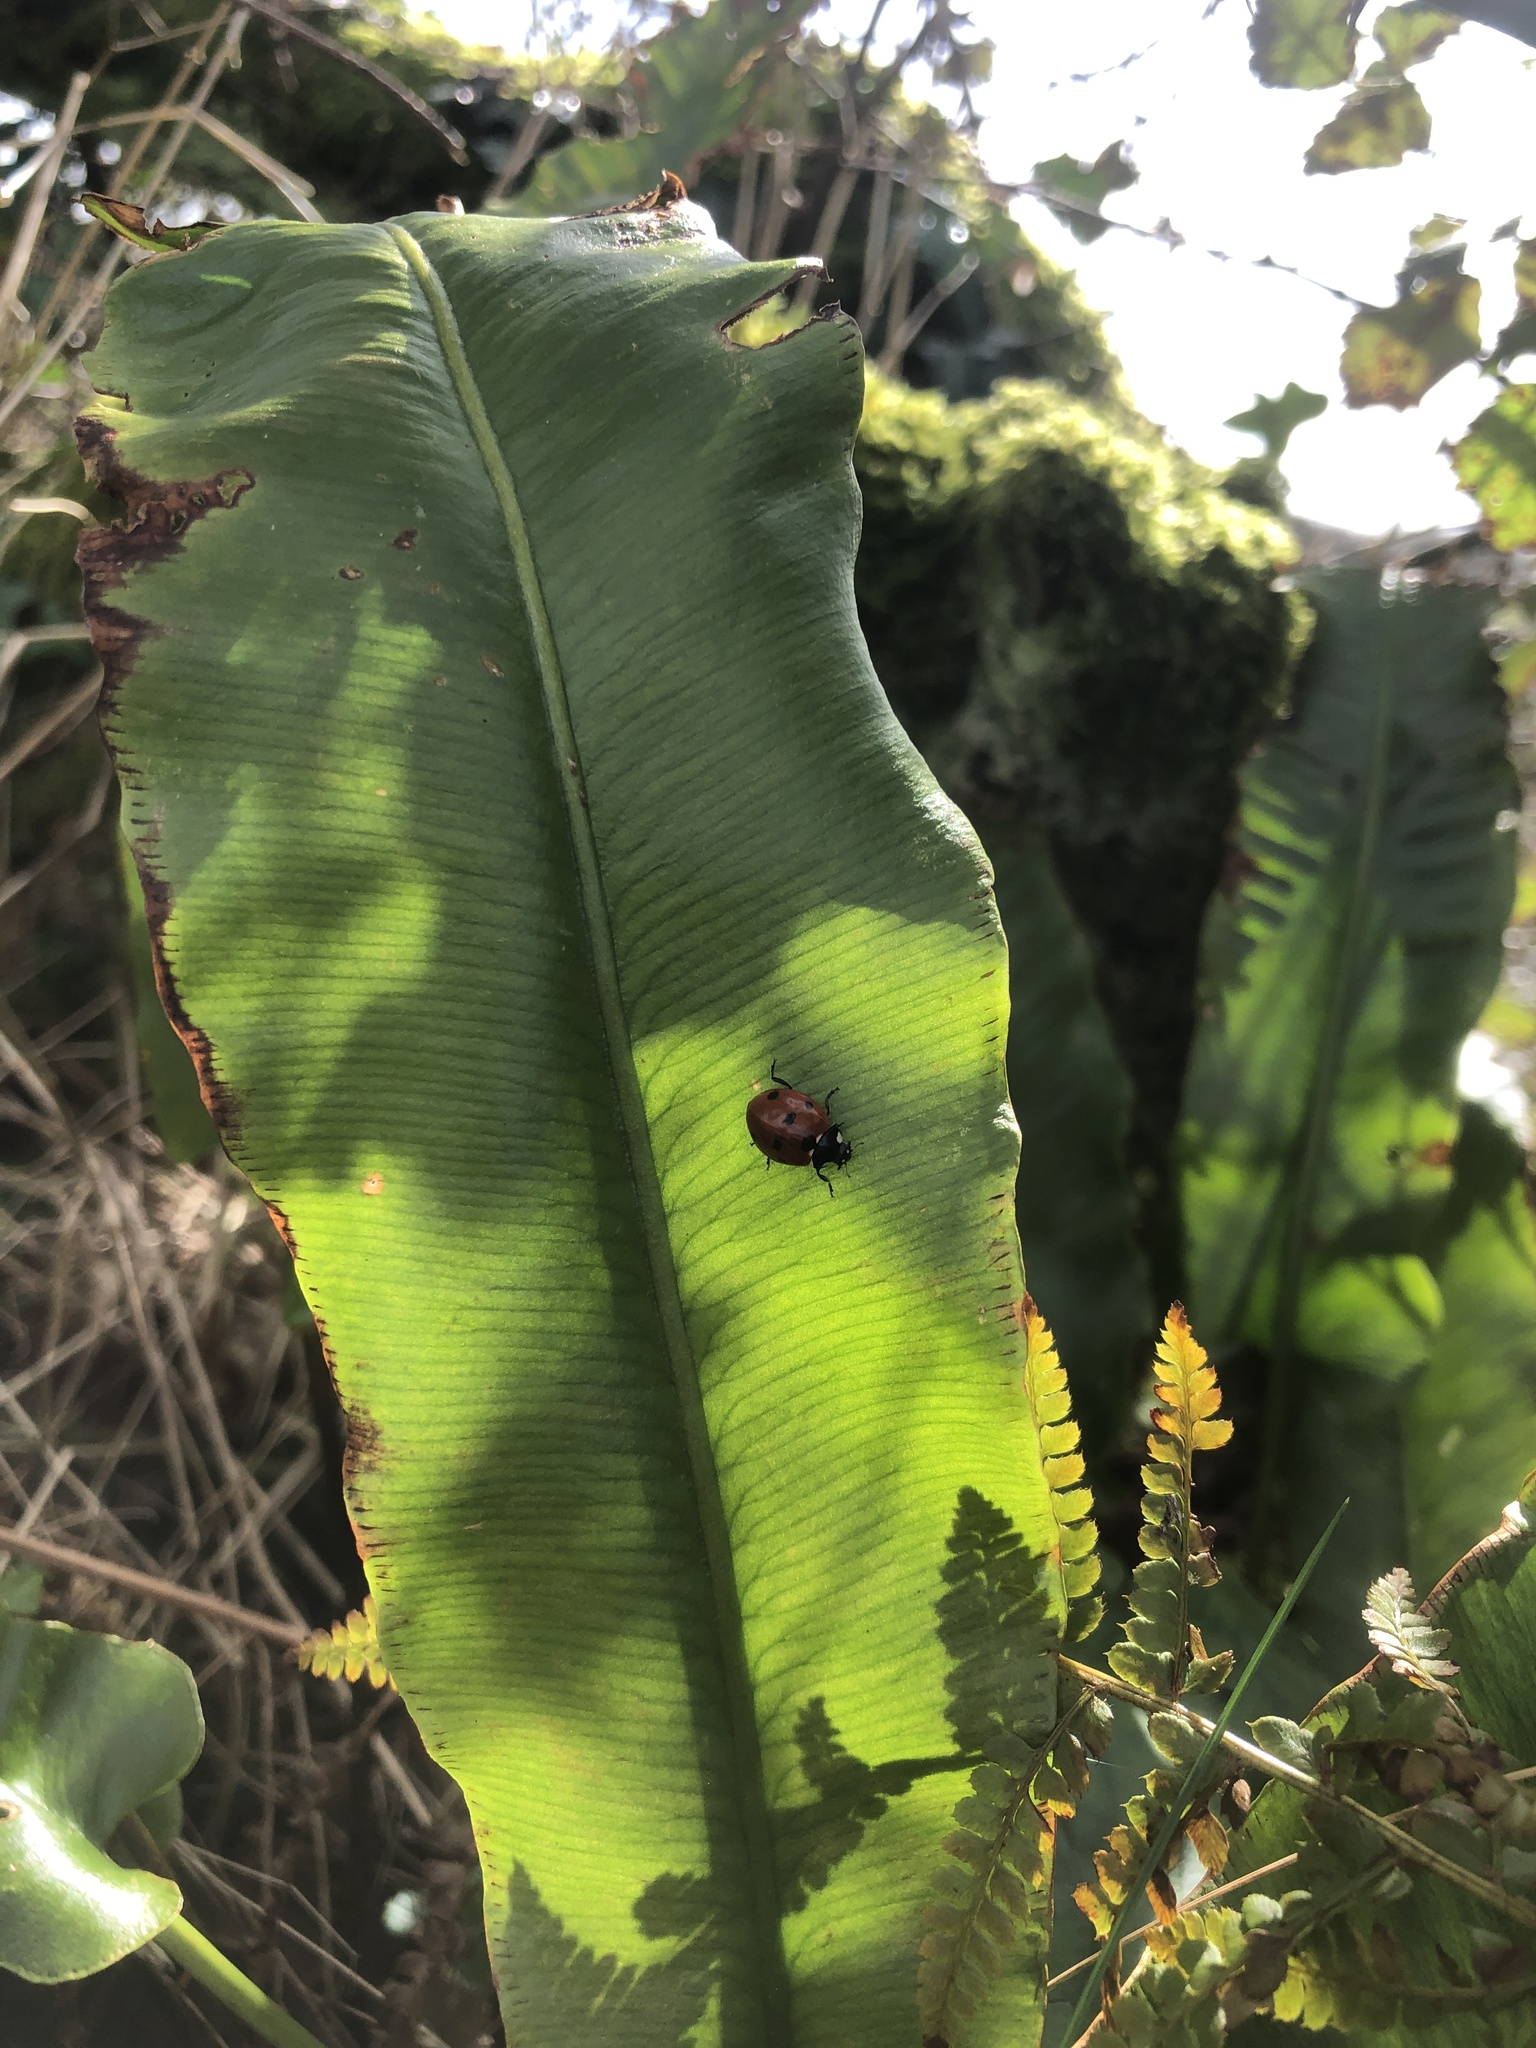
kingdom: Animalia
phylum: Arthropoda
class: Insecta
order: Coleoptera
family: Coccinellidae
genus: Coccinella
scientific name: Coccinella septempunctata
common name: Sevenspotted lady beetle
